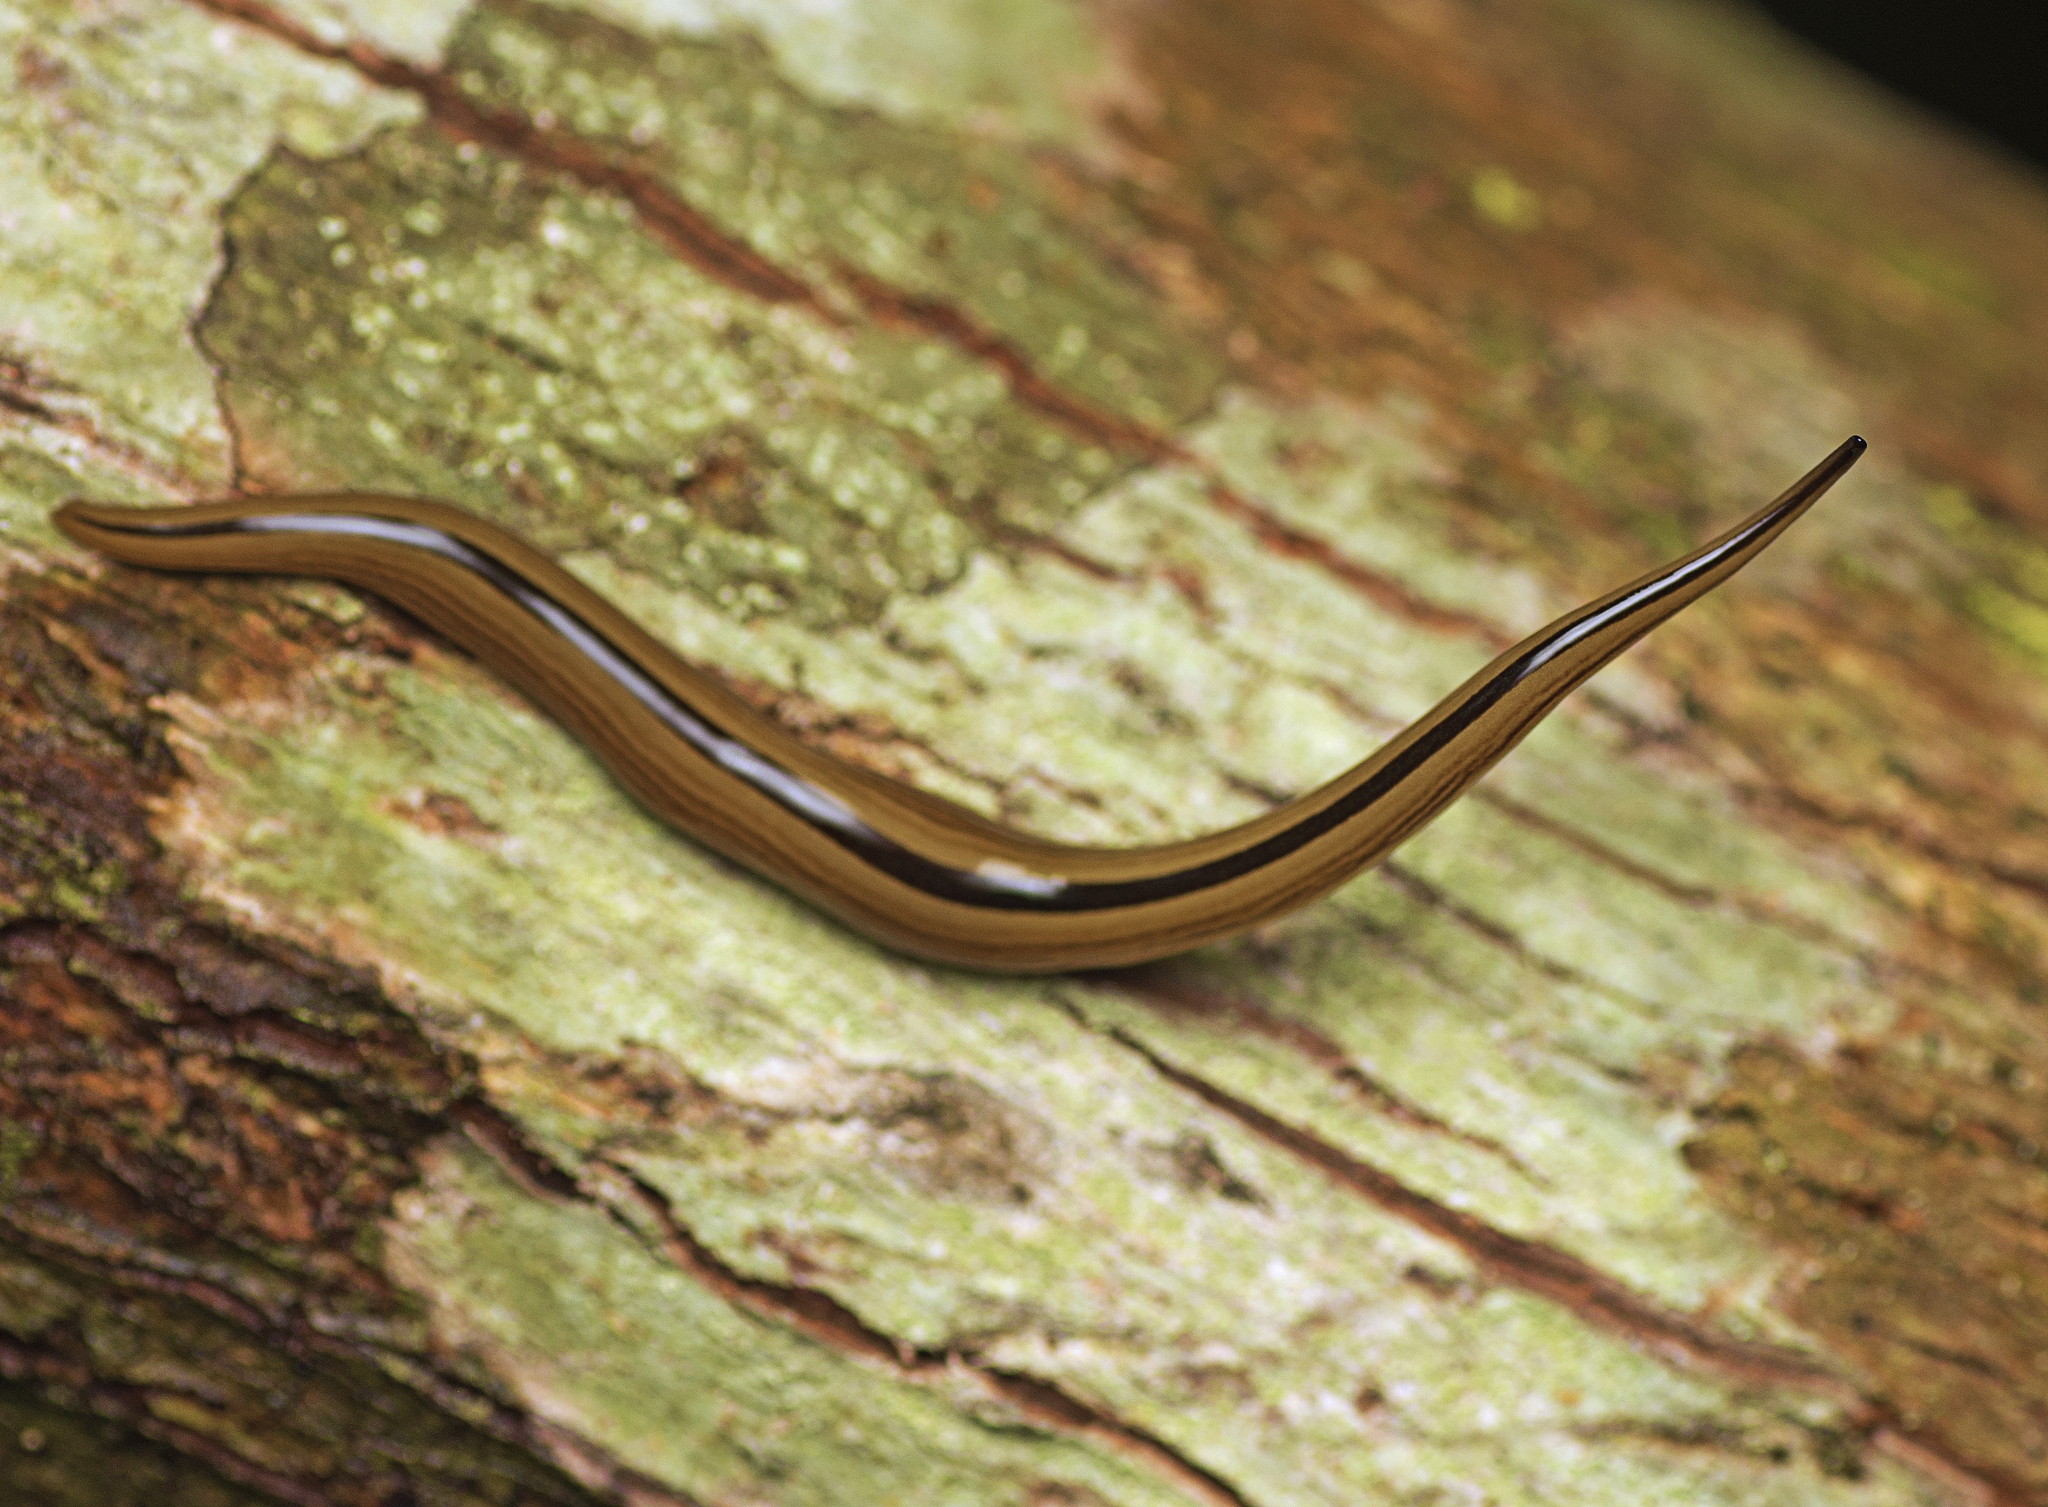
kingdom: Animalia
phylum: Platyhelminthes
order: Tricladida
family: Geoplanidae
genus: Australopacifica
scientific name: Australopacifica regina
